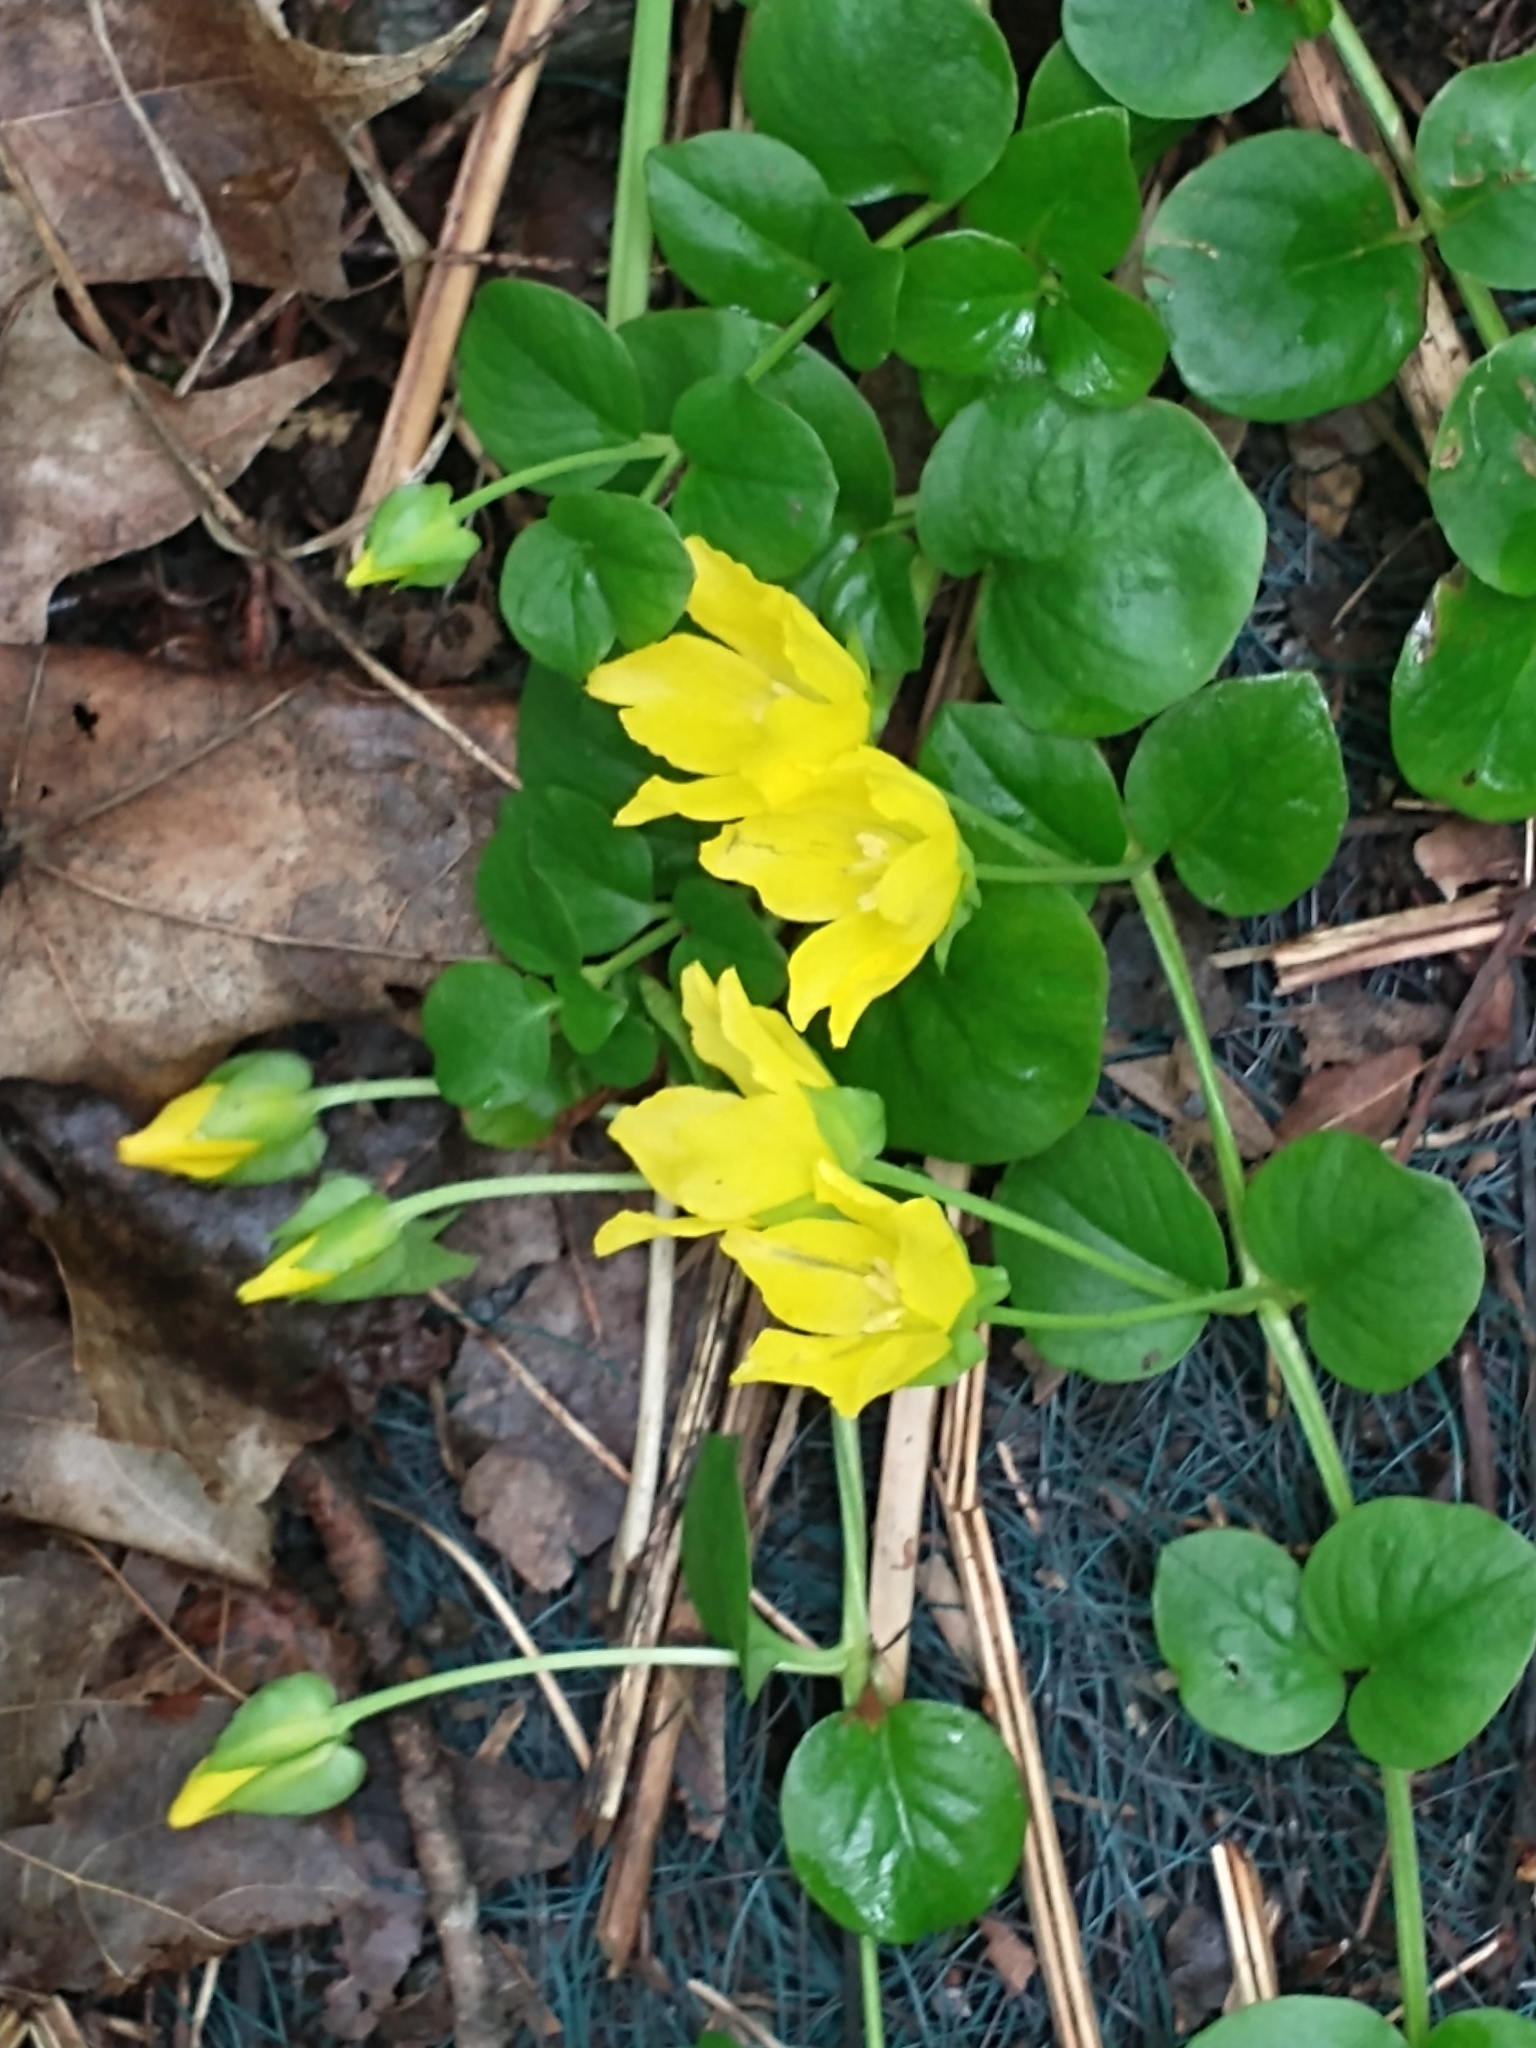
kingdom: Plantae
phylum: Tracheophyta
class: Magnoliopsida
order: Ericales
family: Primulaceae
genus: Lysimachia
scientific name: Lysimachia nummularia
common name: Moneywort
